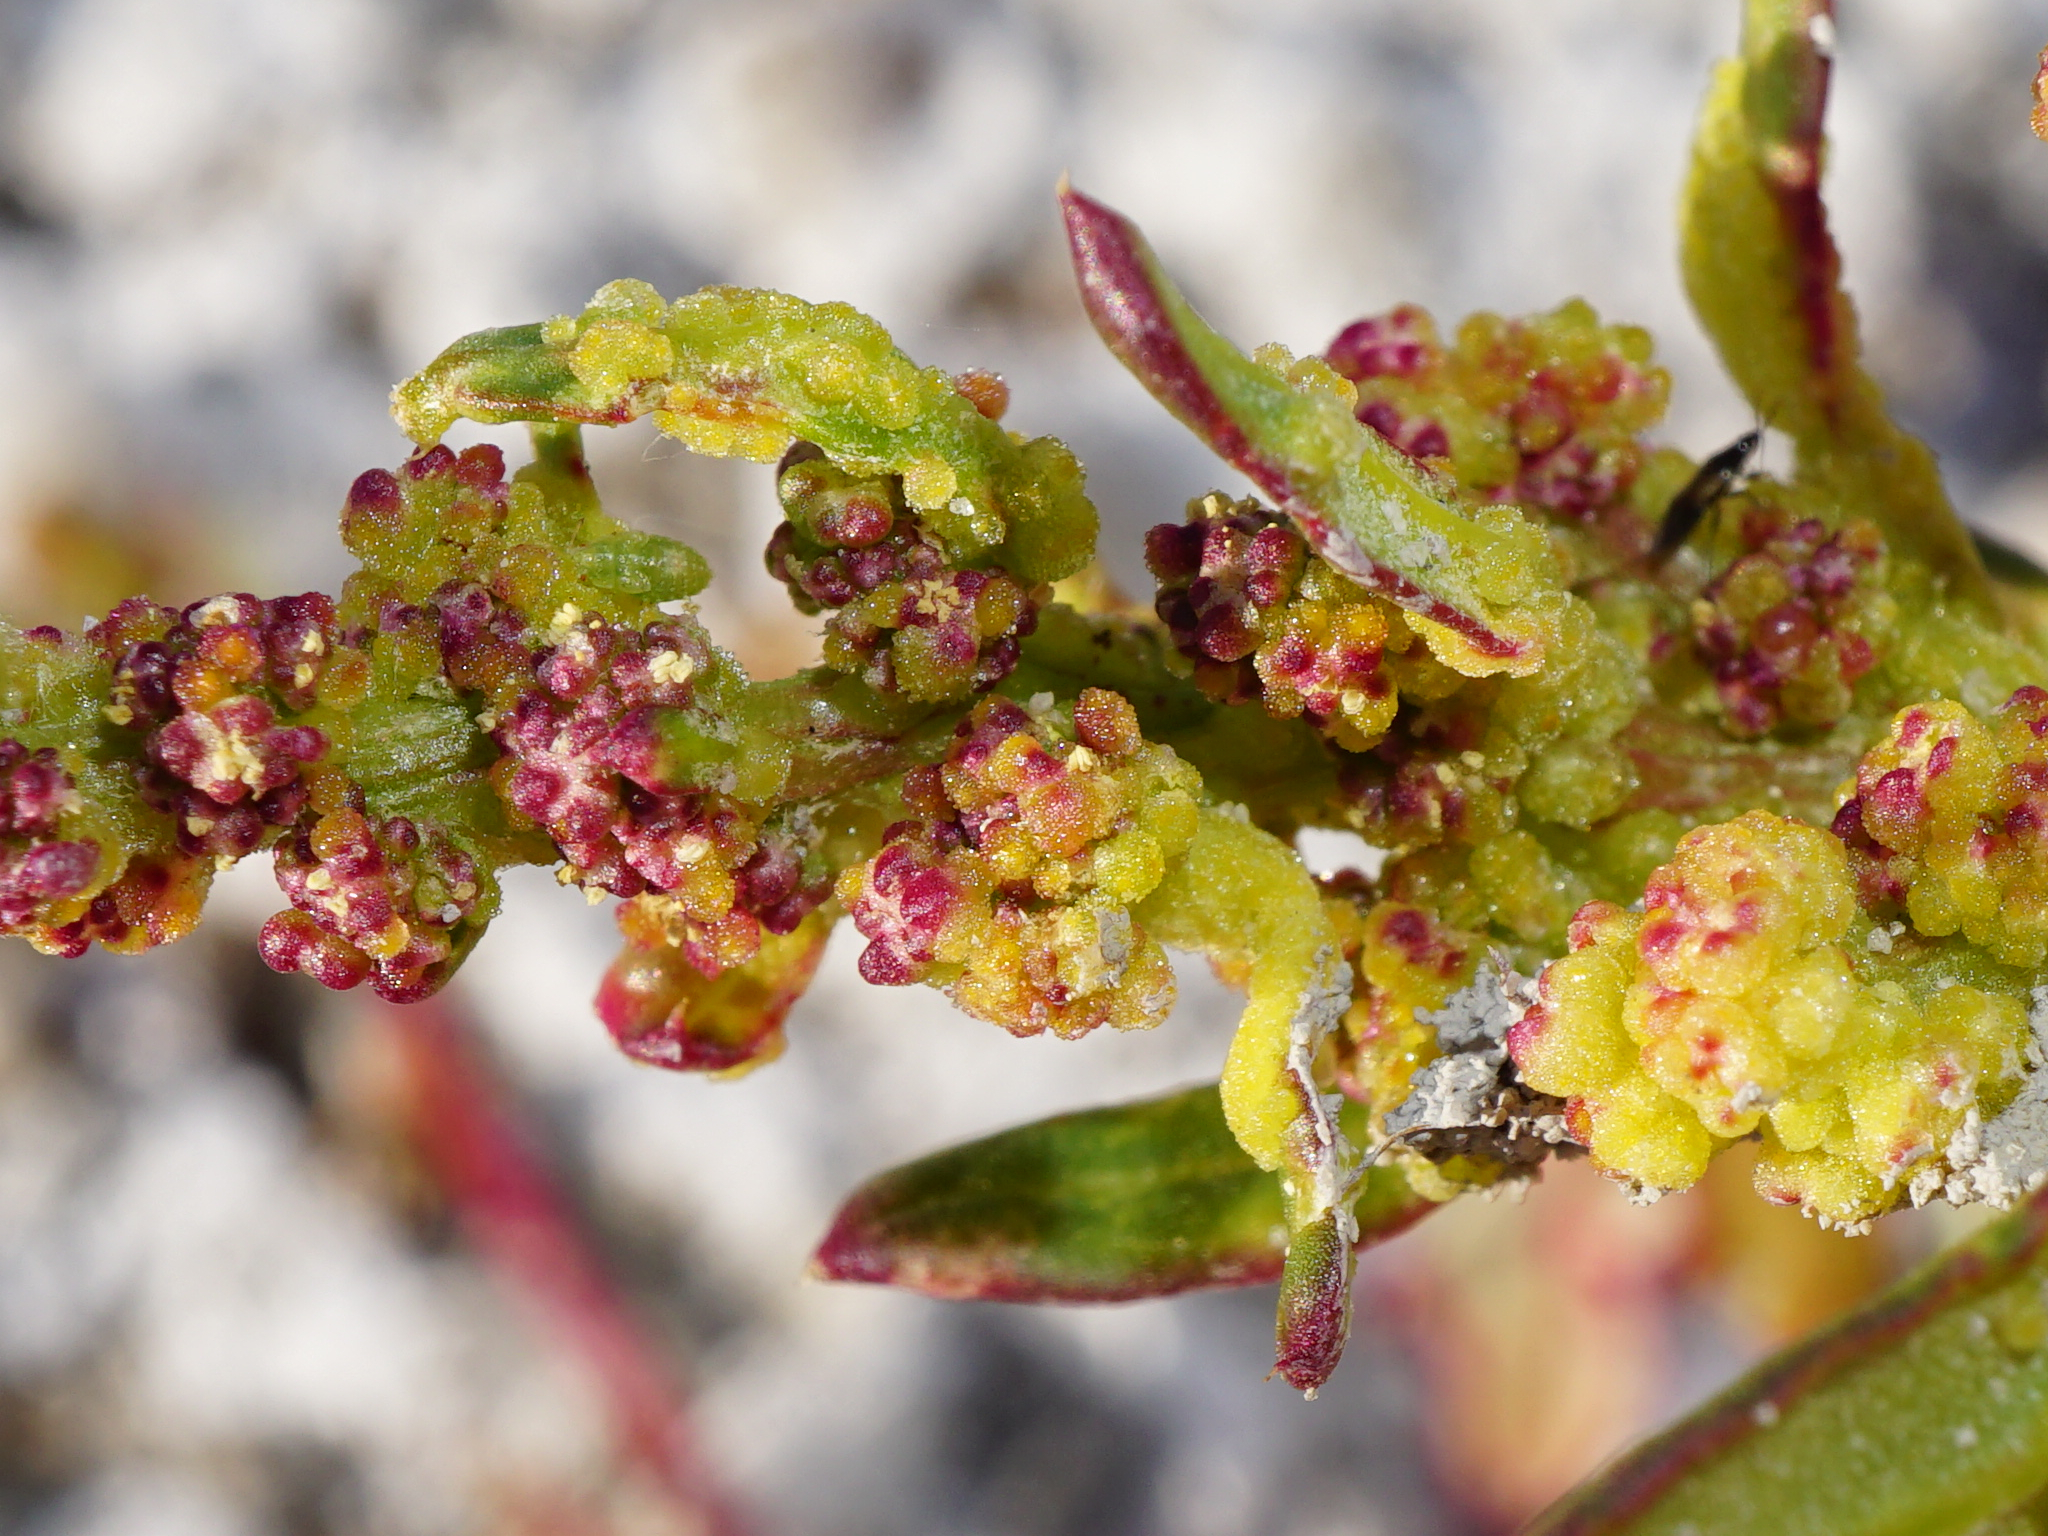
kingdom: Plantae
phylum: Tracheophyta
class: Magnoliopsida
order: Caryophyllales
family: Amaranthaceae
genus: Oxybasis
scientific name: Oxybasis chenopodioides
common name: Saltmarsh goosefoot
